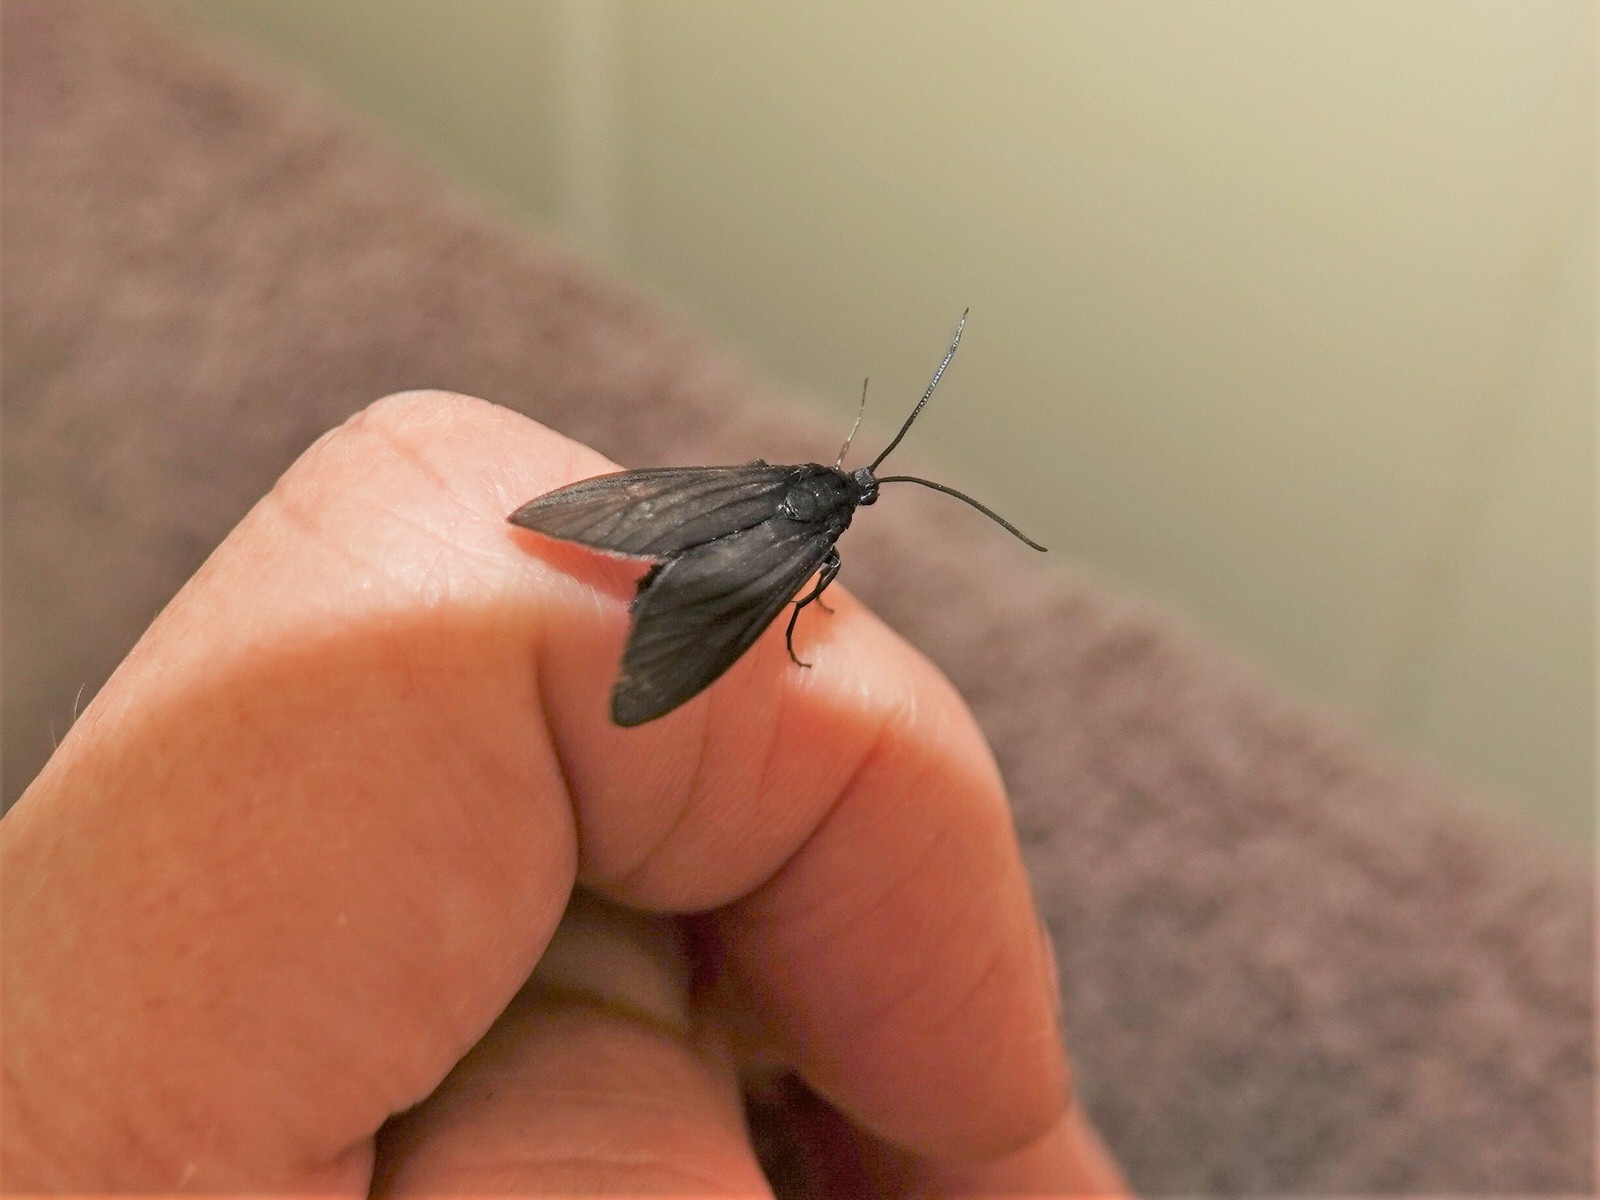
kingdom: Animalia
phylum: Arthropoda
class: Insecta
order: Lepidoptera
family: Zygaenidae
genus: Artona
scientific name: Artona martini
